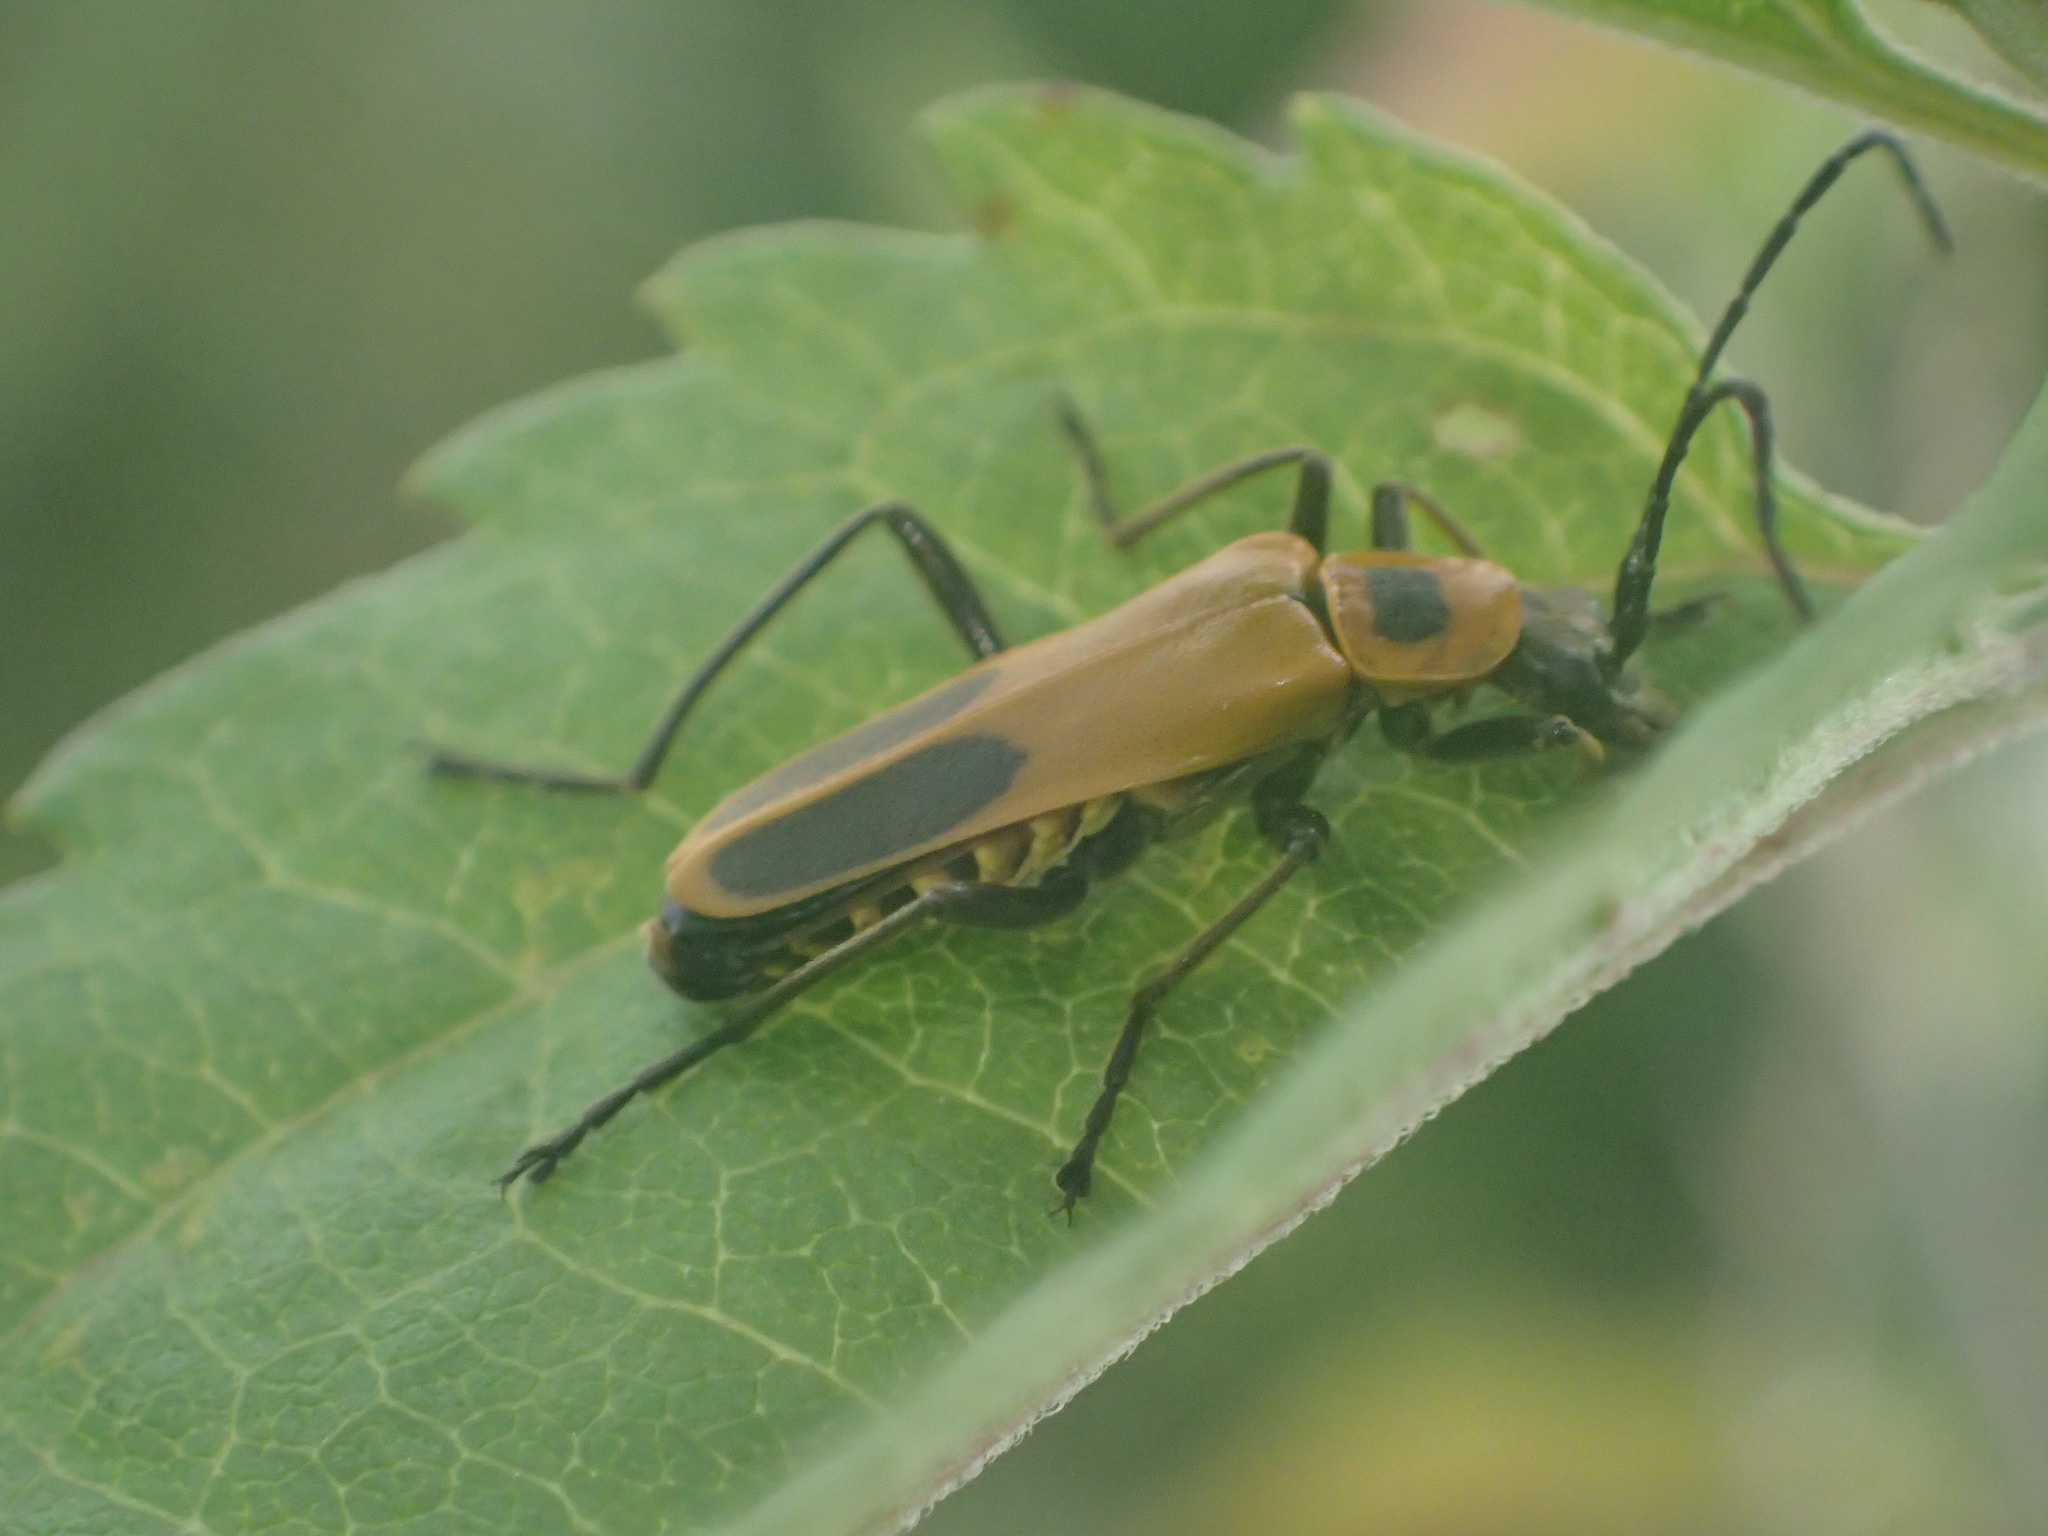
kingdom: Animalia
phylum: Arthropoda
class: Insecta
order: Coleoptera
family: Cantharidae
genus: Chauliognathus
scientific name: Chauliognathus pensylvanicus
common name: Goldenrod soldier beetle
